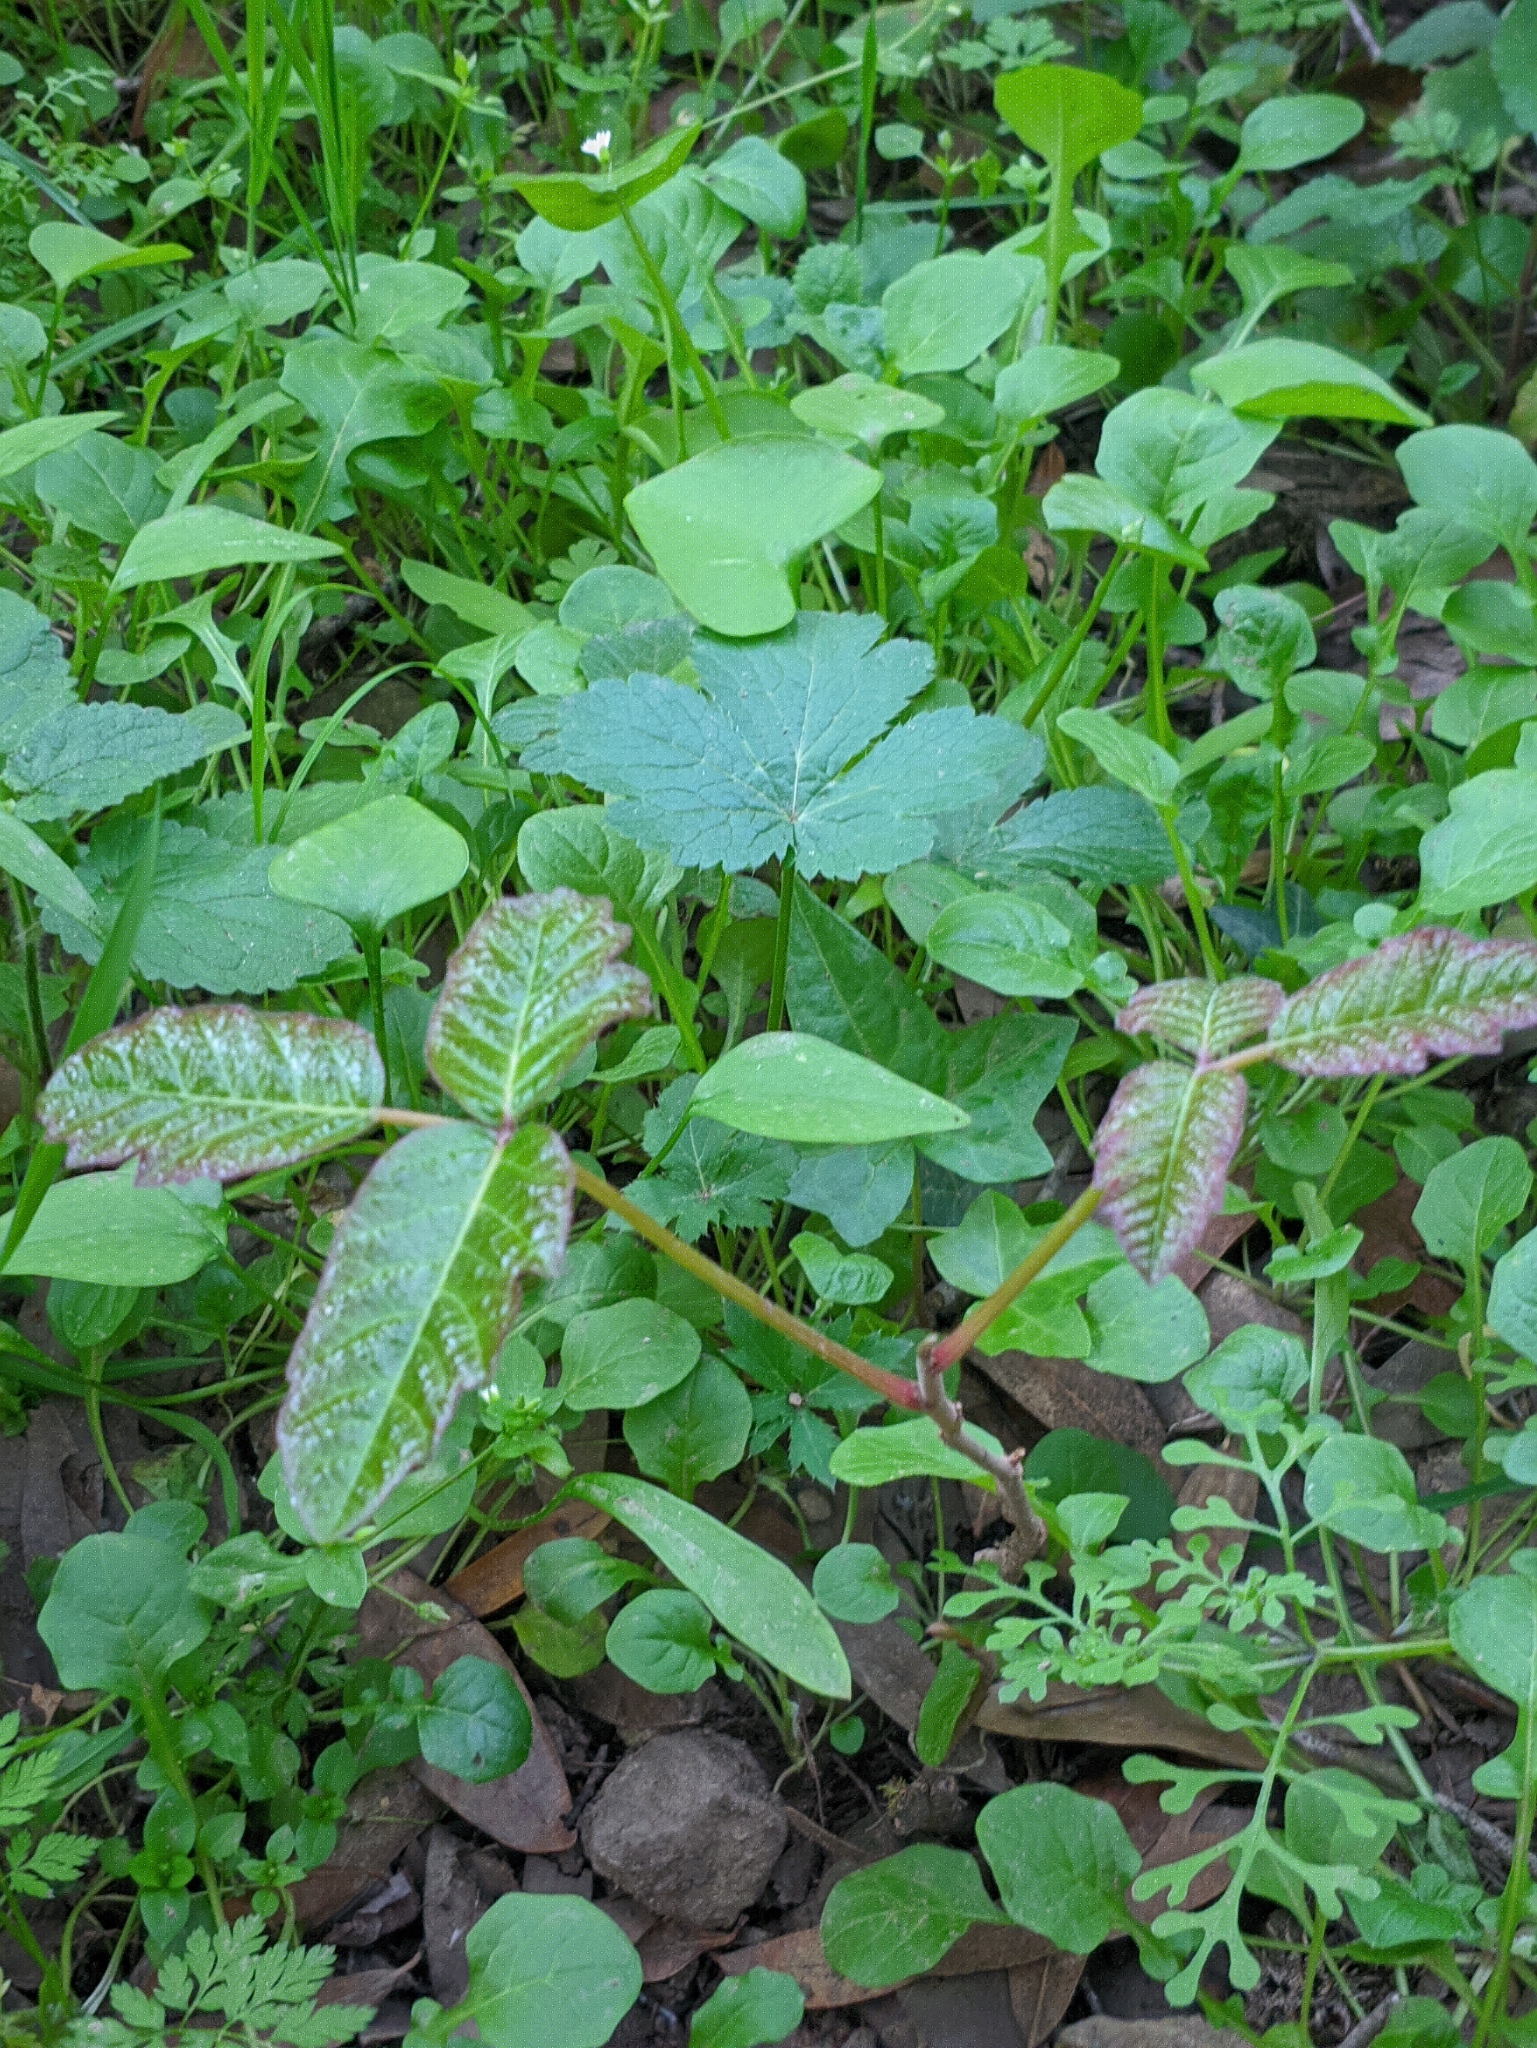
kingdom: Plantae
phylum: Tracheophyta
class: Magnoliopsida
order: Sapindales
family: Anacardiaceae
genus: Toxicodendron
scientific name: Toxicodendron diversilobum
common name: Pacific poison-oak
